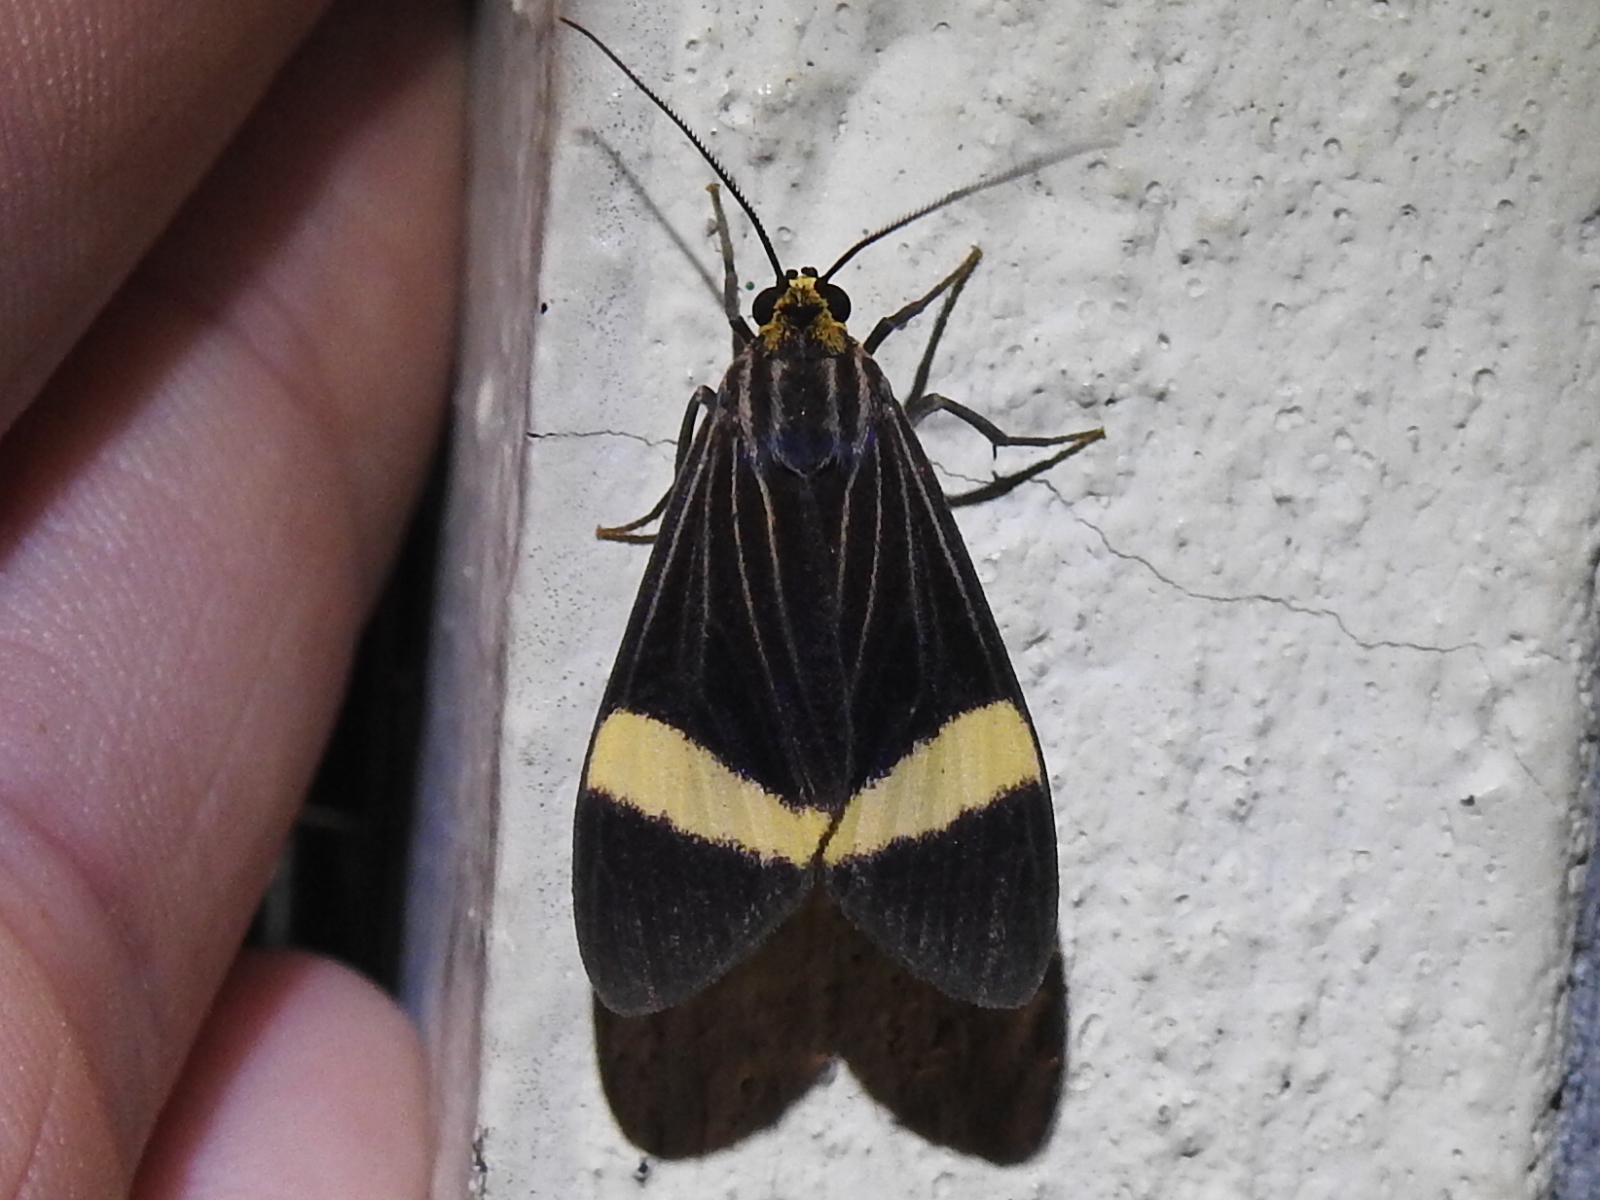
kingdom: Animalia
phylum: Arthropoda
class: Insecta
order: Lepidoptera
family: Erebidae
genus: Aclytia
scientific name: Aclytia heber
